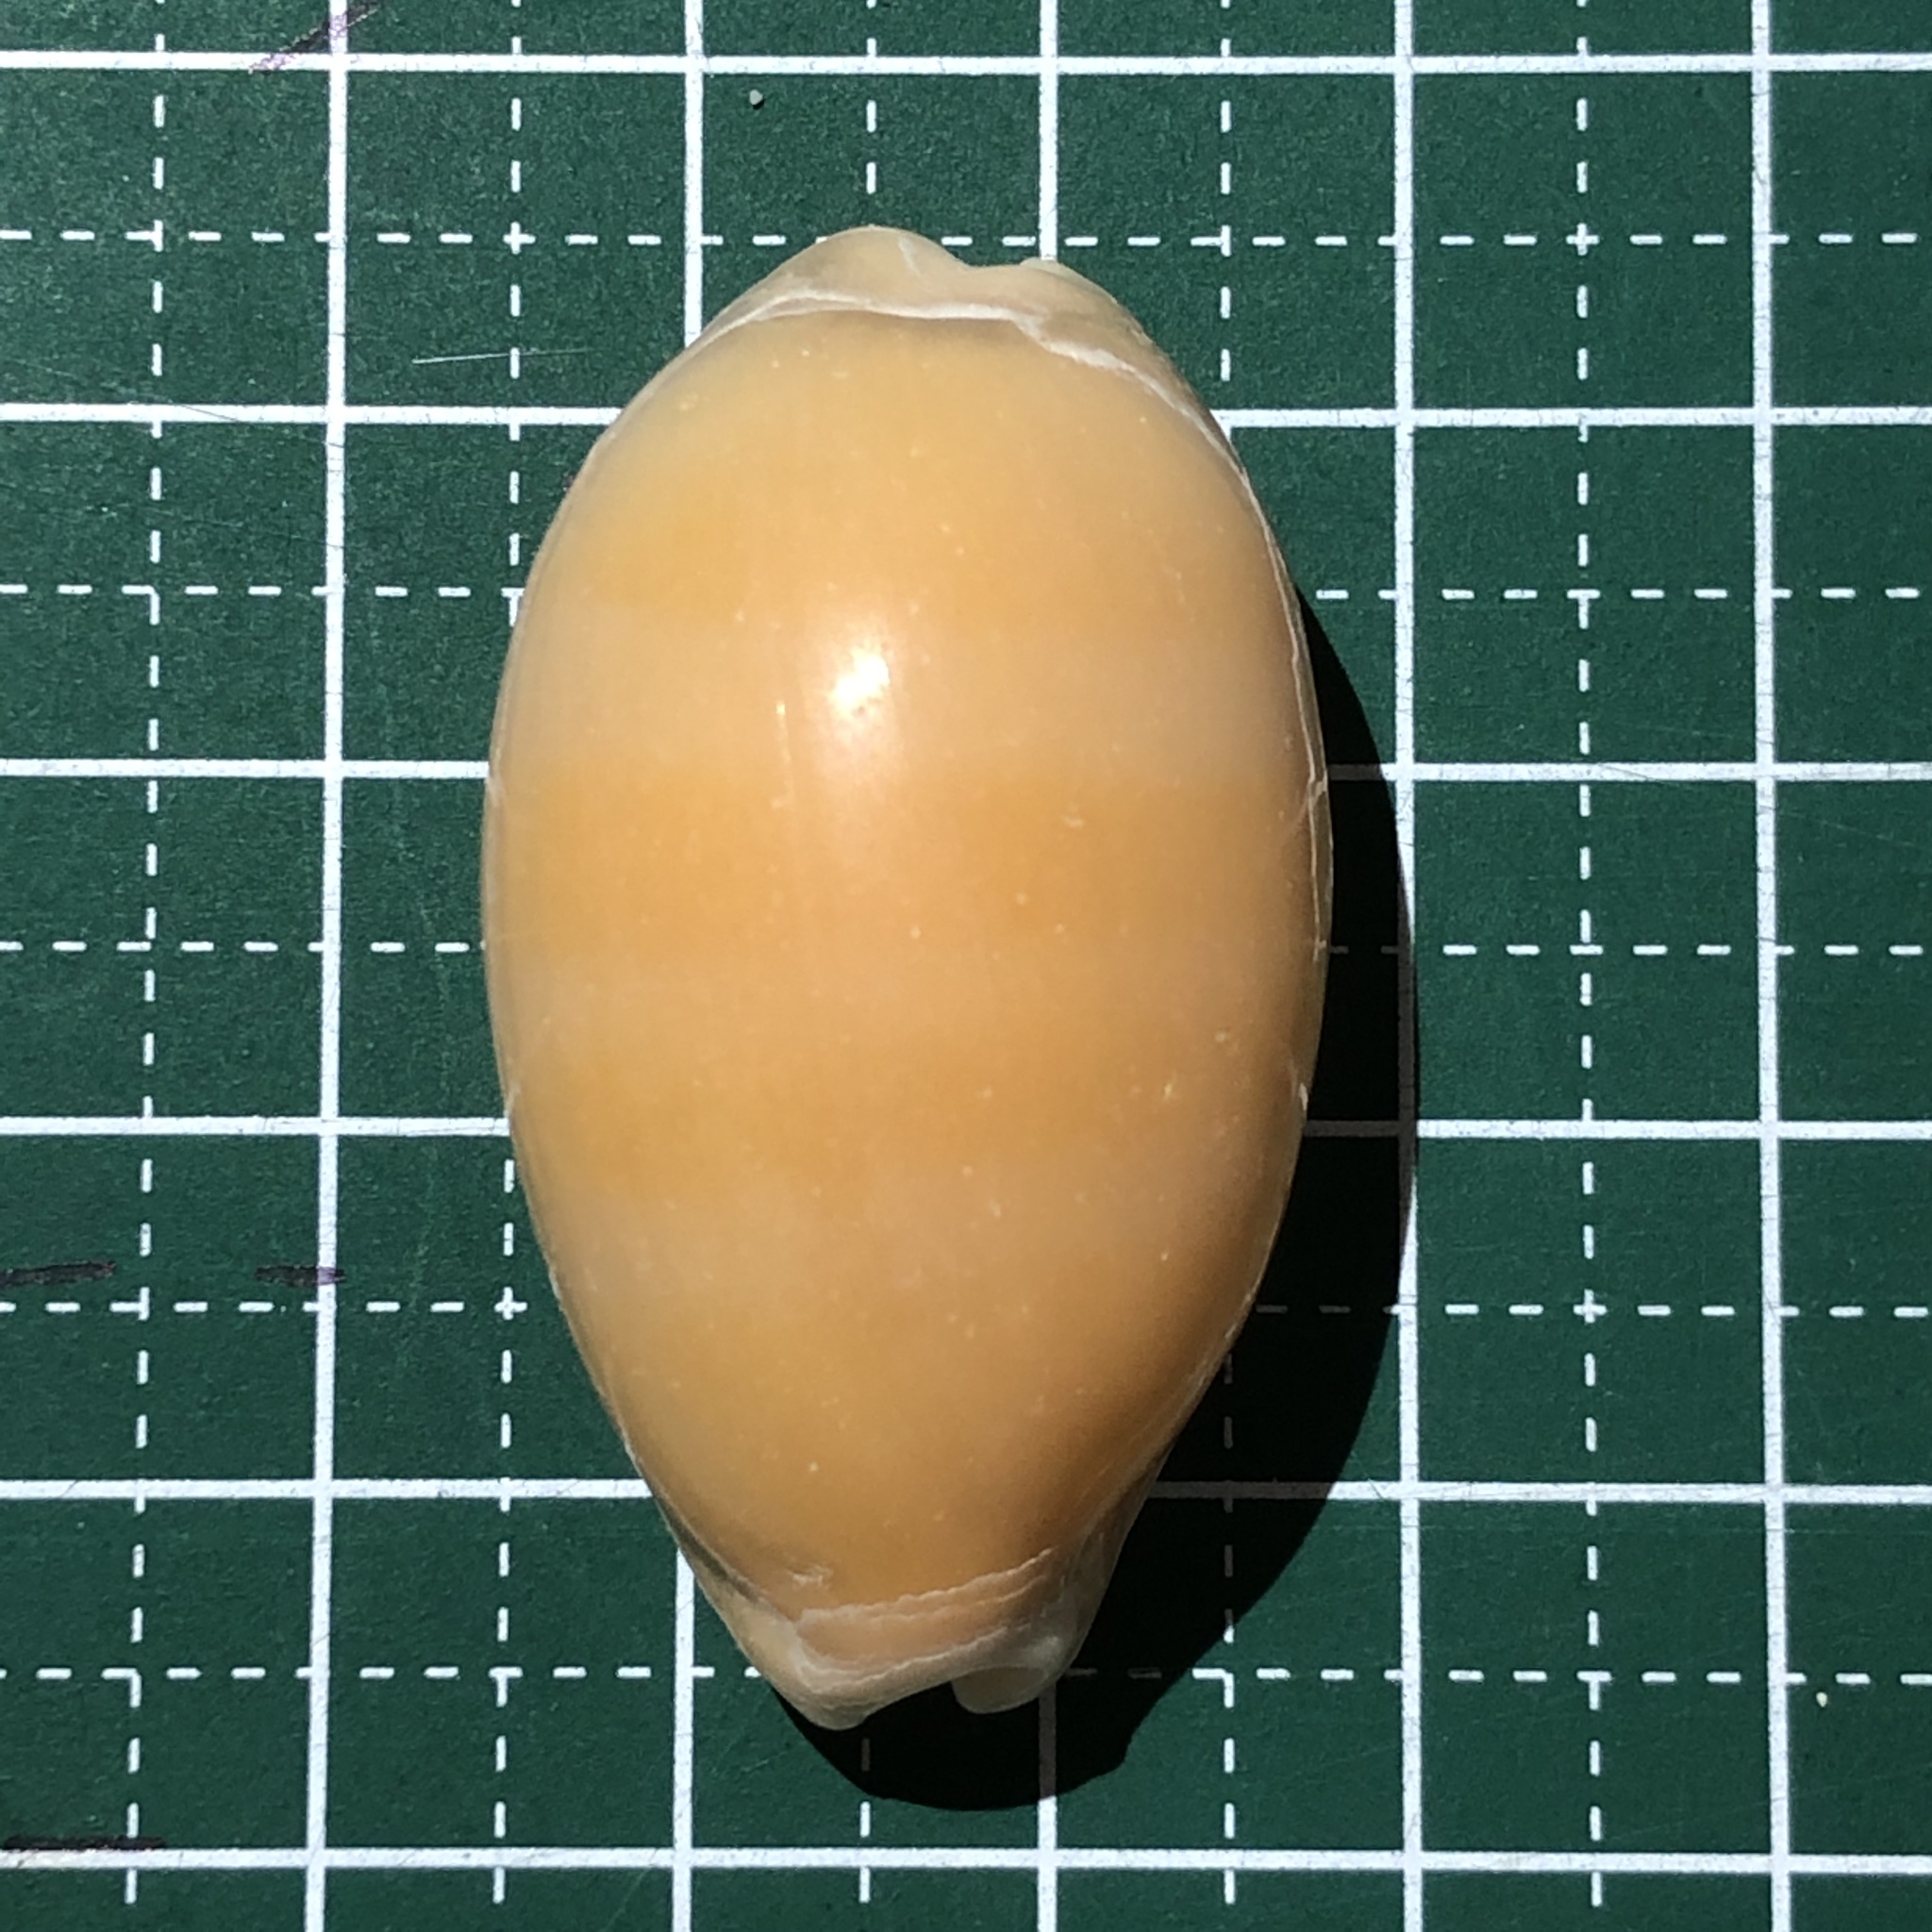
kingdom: Animalia
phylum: Mollusca
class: Gastropoda
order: Littorinimorpha
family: Cypraeidae
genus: Lyncina
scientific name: Lyncina carneola
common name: Purple-mouthed cowry
